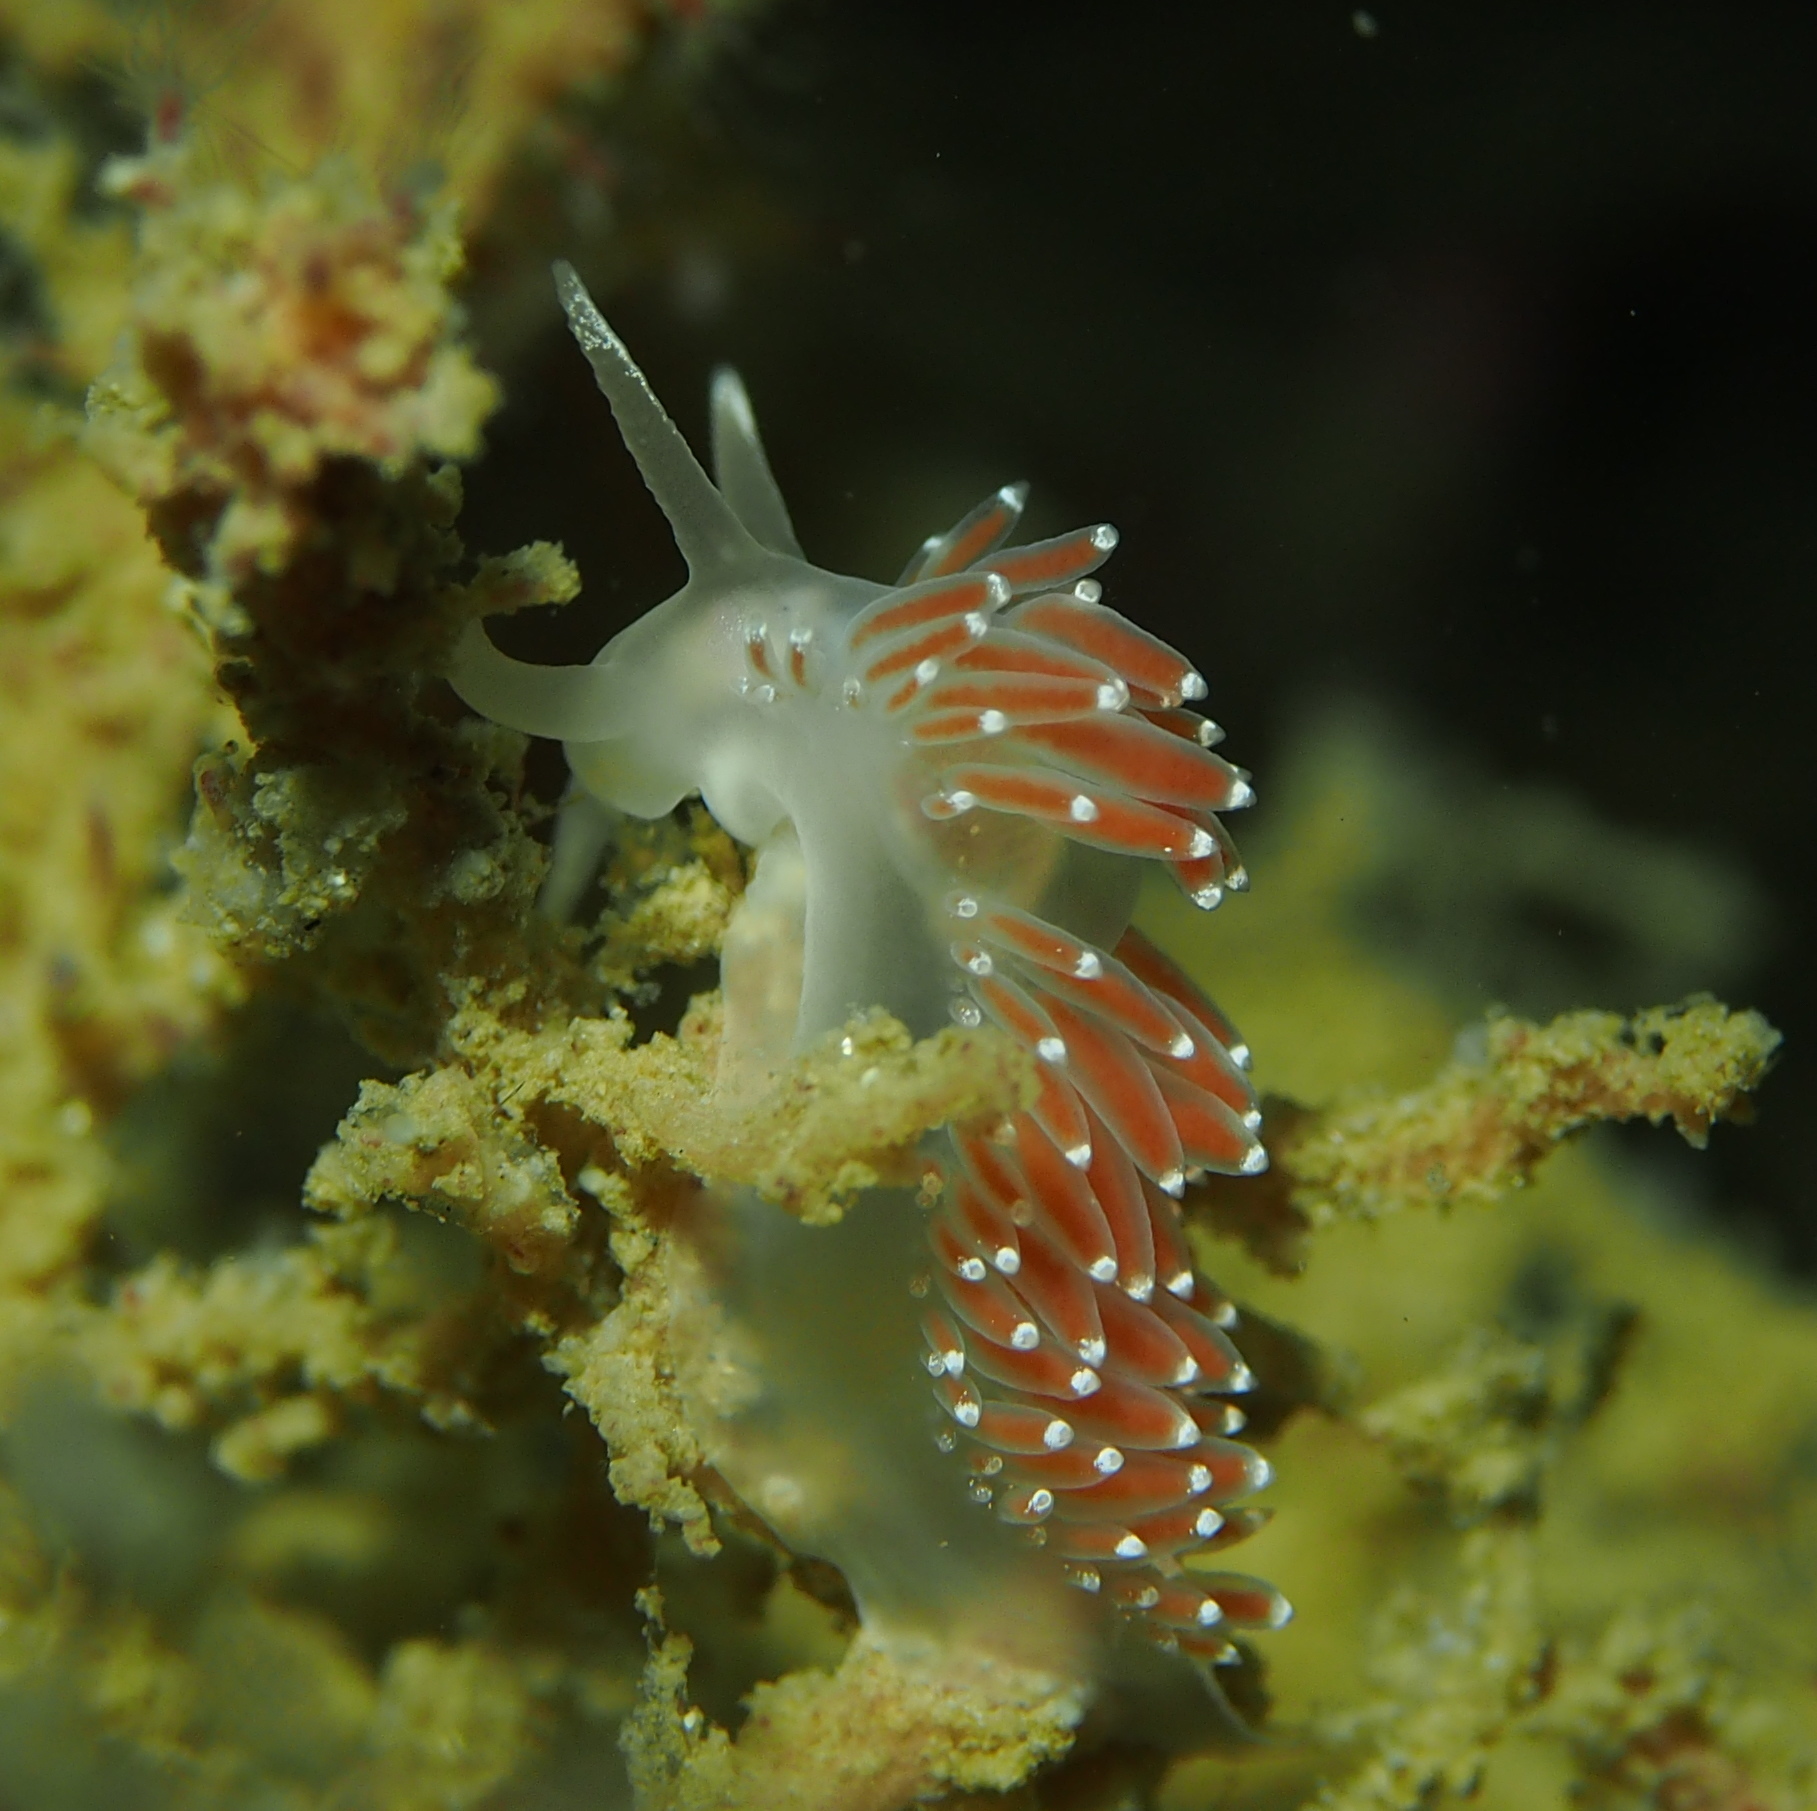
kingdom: Animalia
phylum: Mollusca
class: Gastropoda
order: Nudibranchia
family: Coryphellidae
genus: Coryphella
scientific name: Coryphella verrucosa
